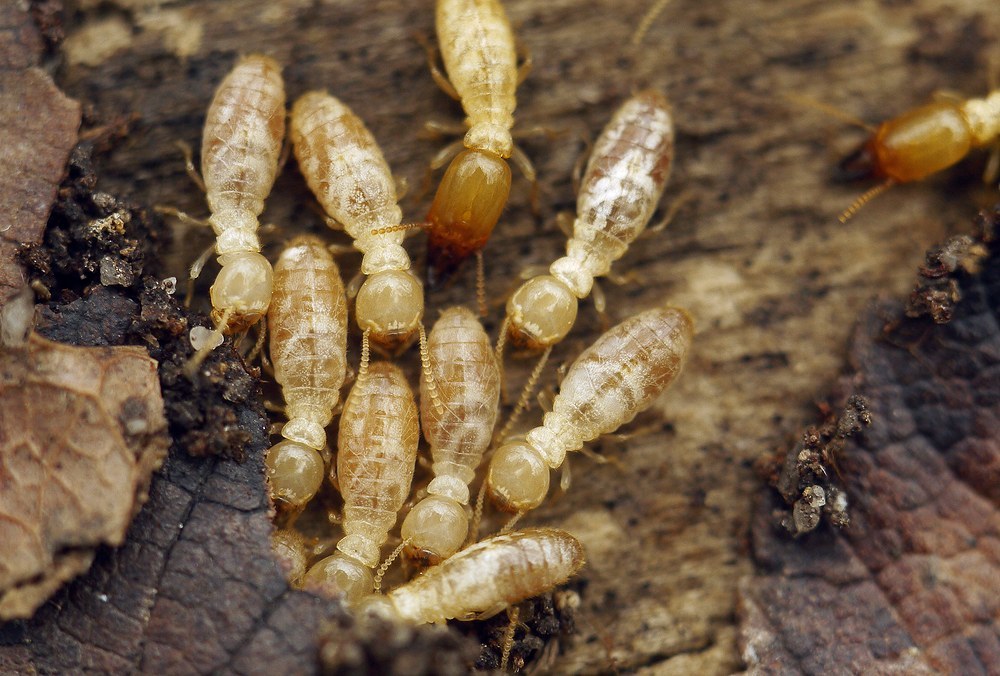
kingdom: Animalia
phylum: Arthropoda
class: Insecta
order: Blattodea
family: Rhinotermitidae
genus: Reticulitermes
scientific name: Reticulitermes lucifugus
